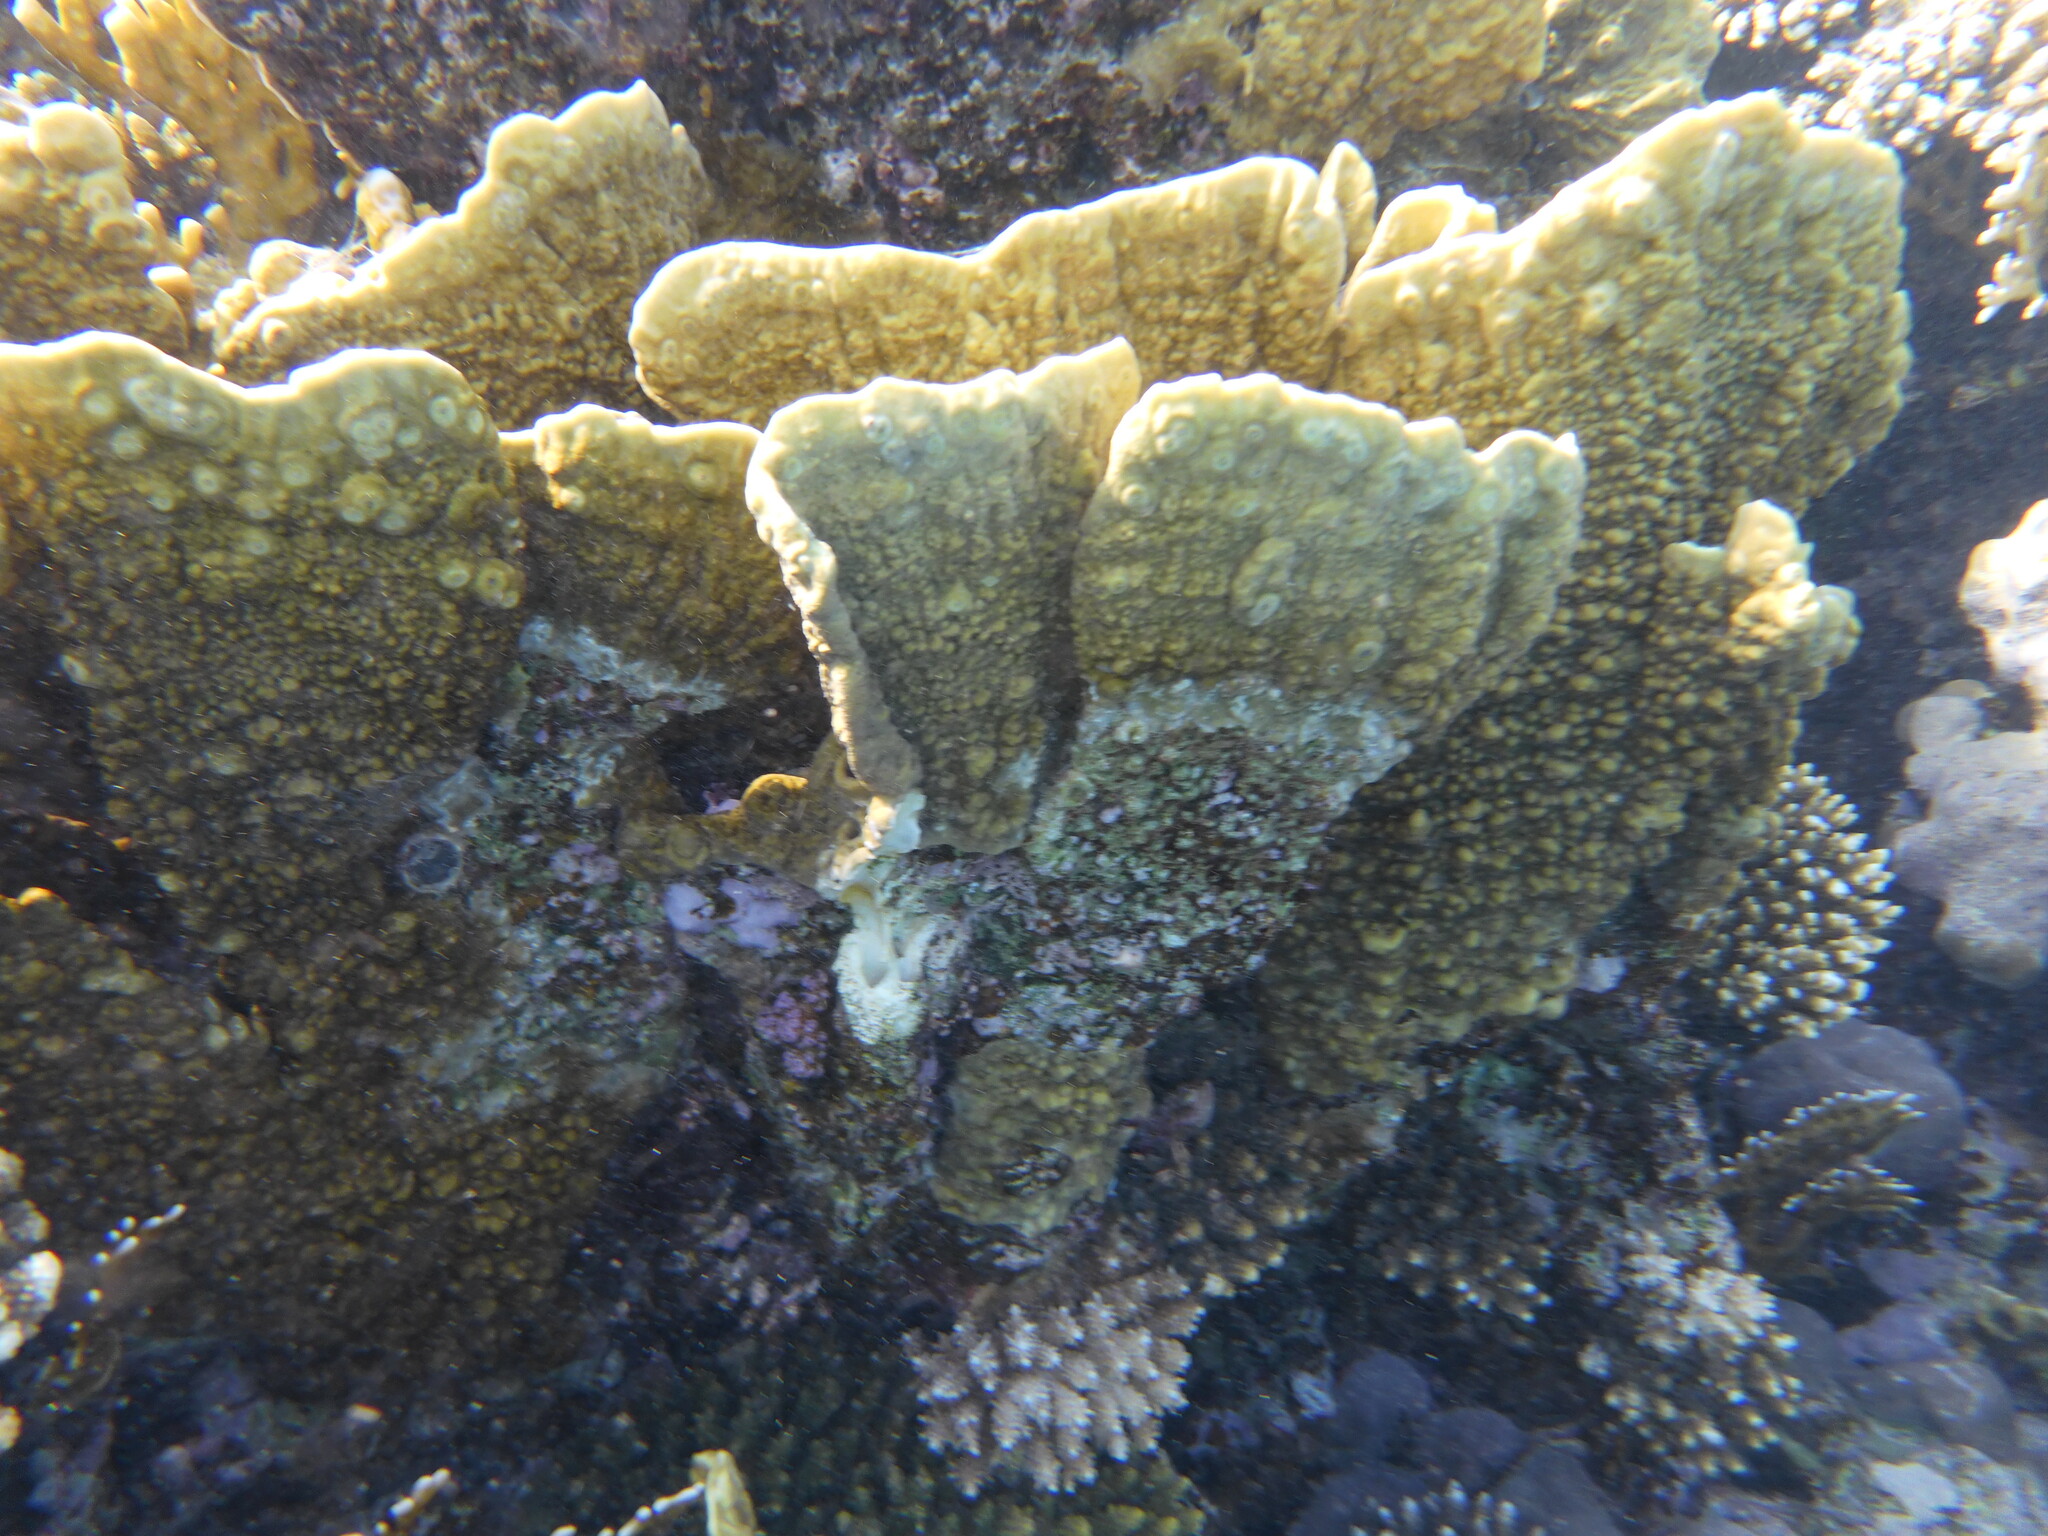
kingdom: Animalia
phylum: Cnidaria
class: Hydrozoa
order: Anthoathecata
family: Milleporidae
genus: Millepora
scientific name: Millepora platyphylla
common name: Sheet fire coral
